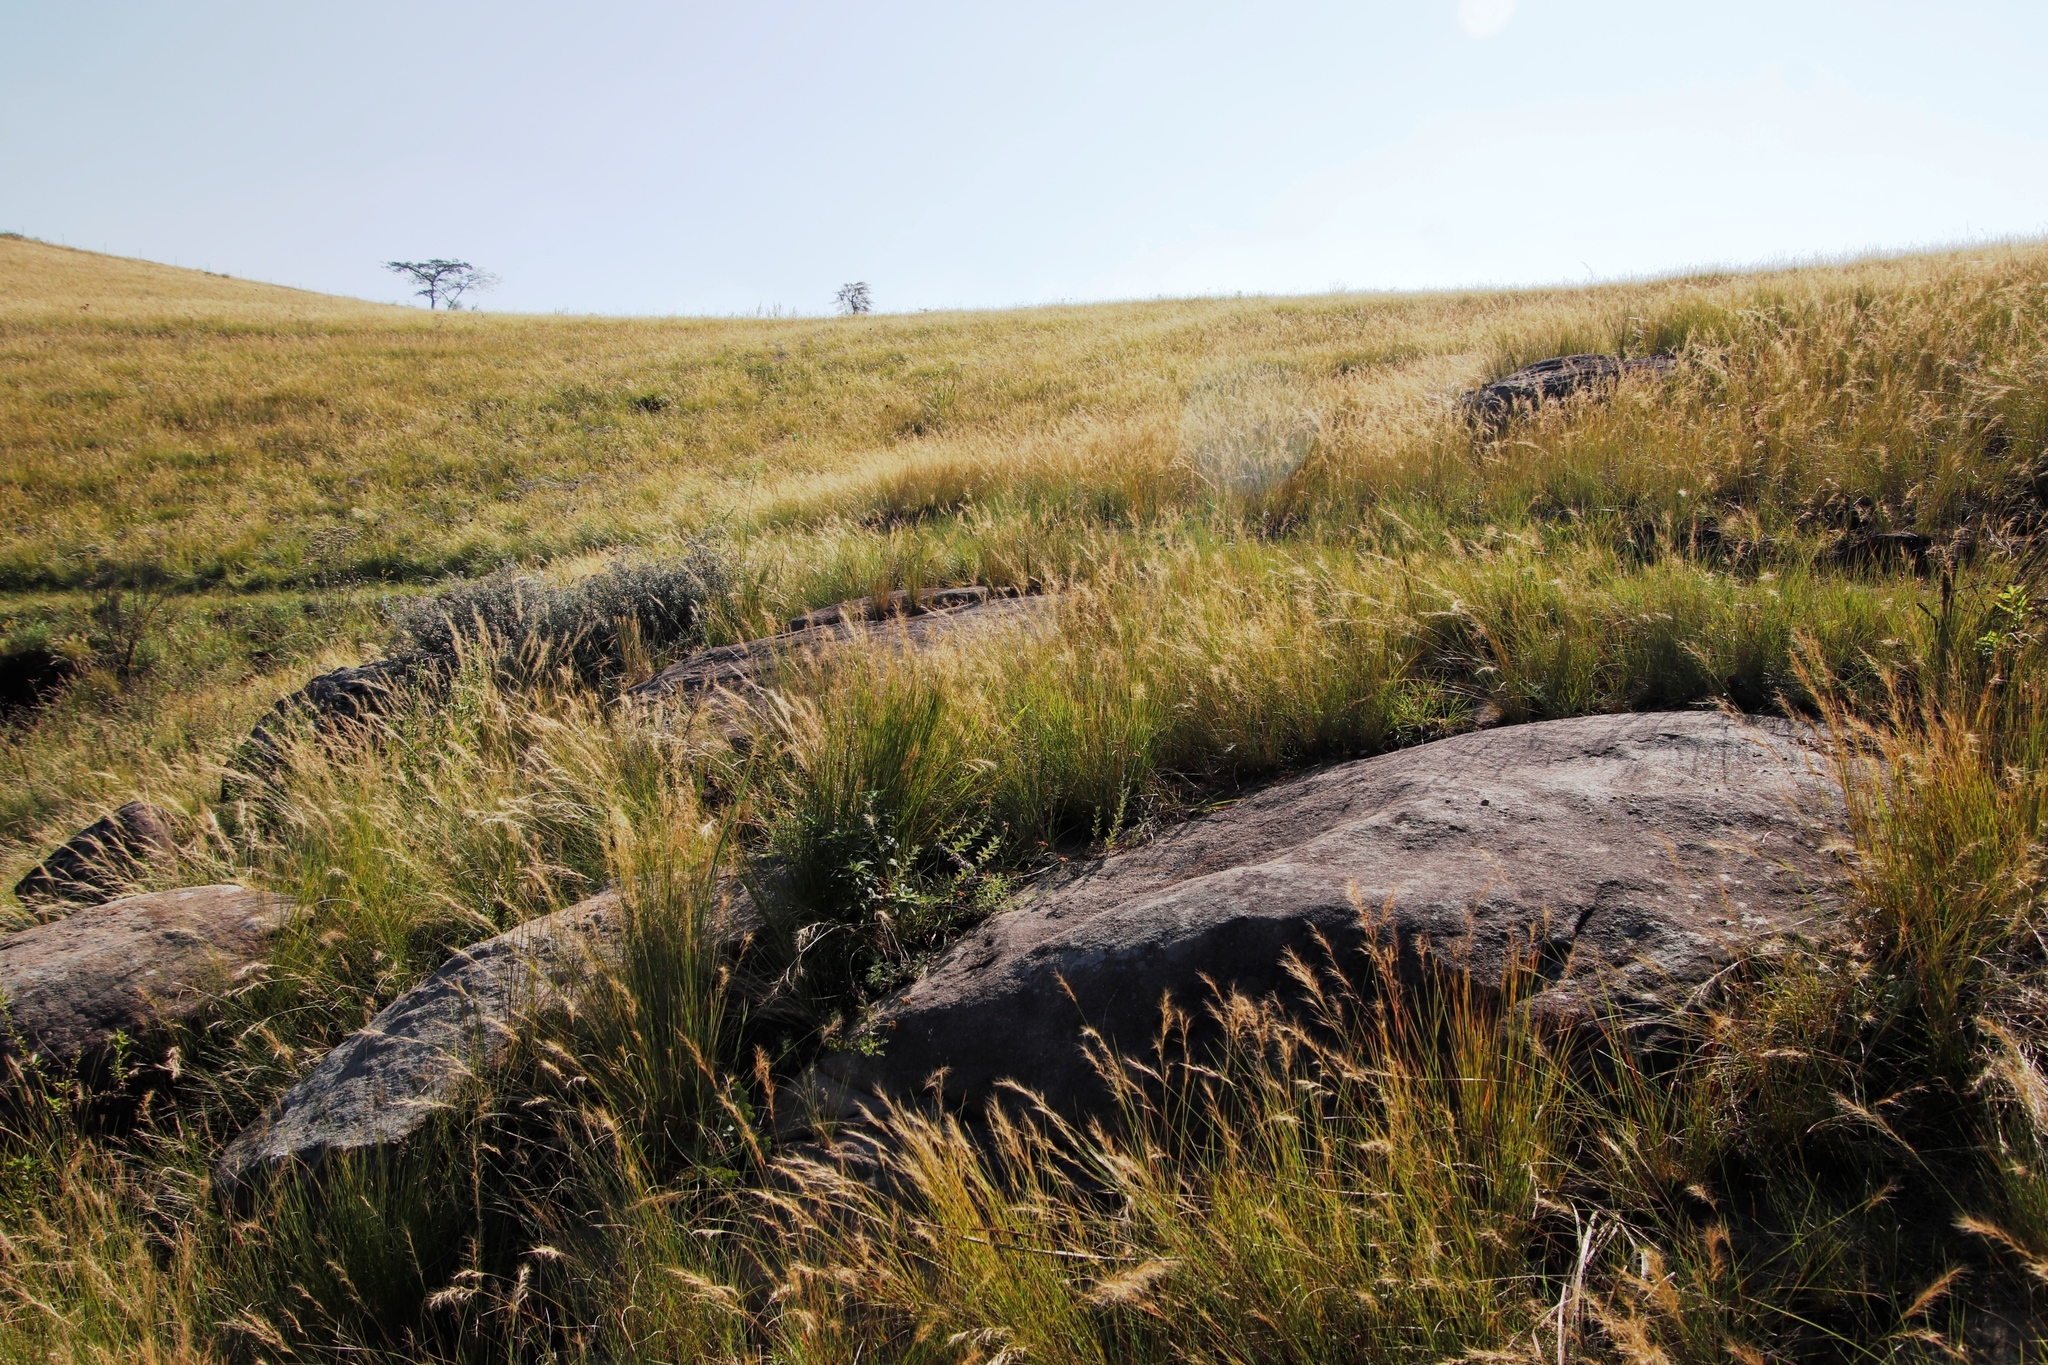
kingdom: Plantae
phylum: Tracheophyta
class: Liliopsida
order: Poales
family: Poaceae
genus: Aristida
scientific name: Aristida junciformis
